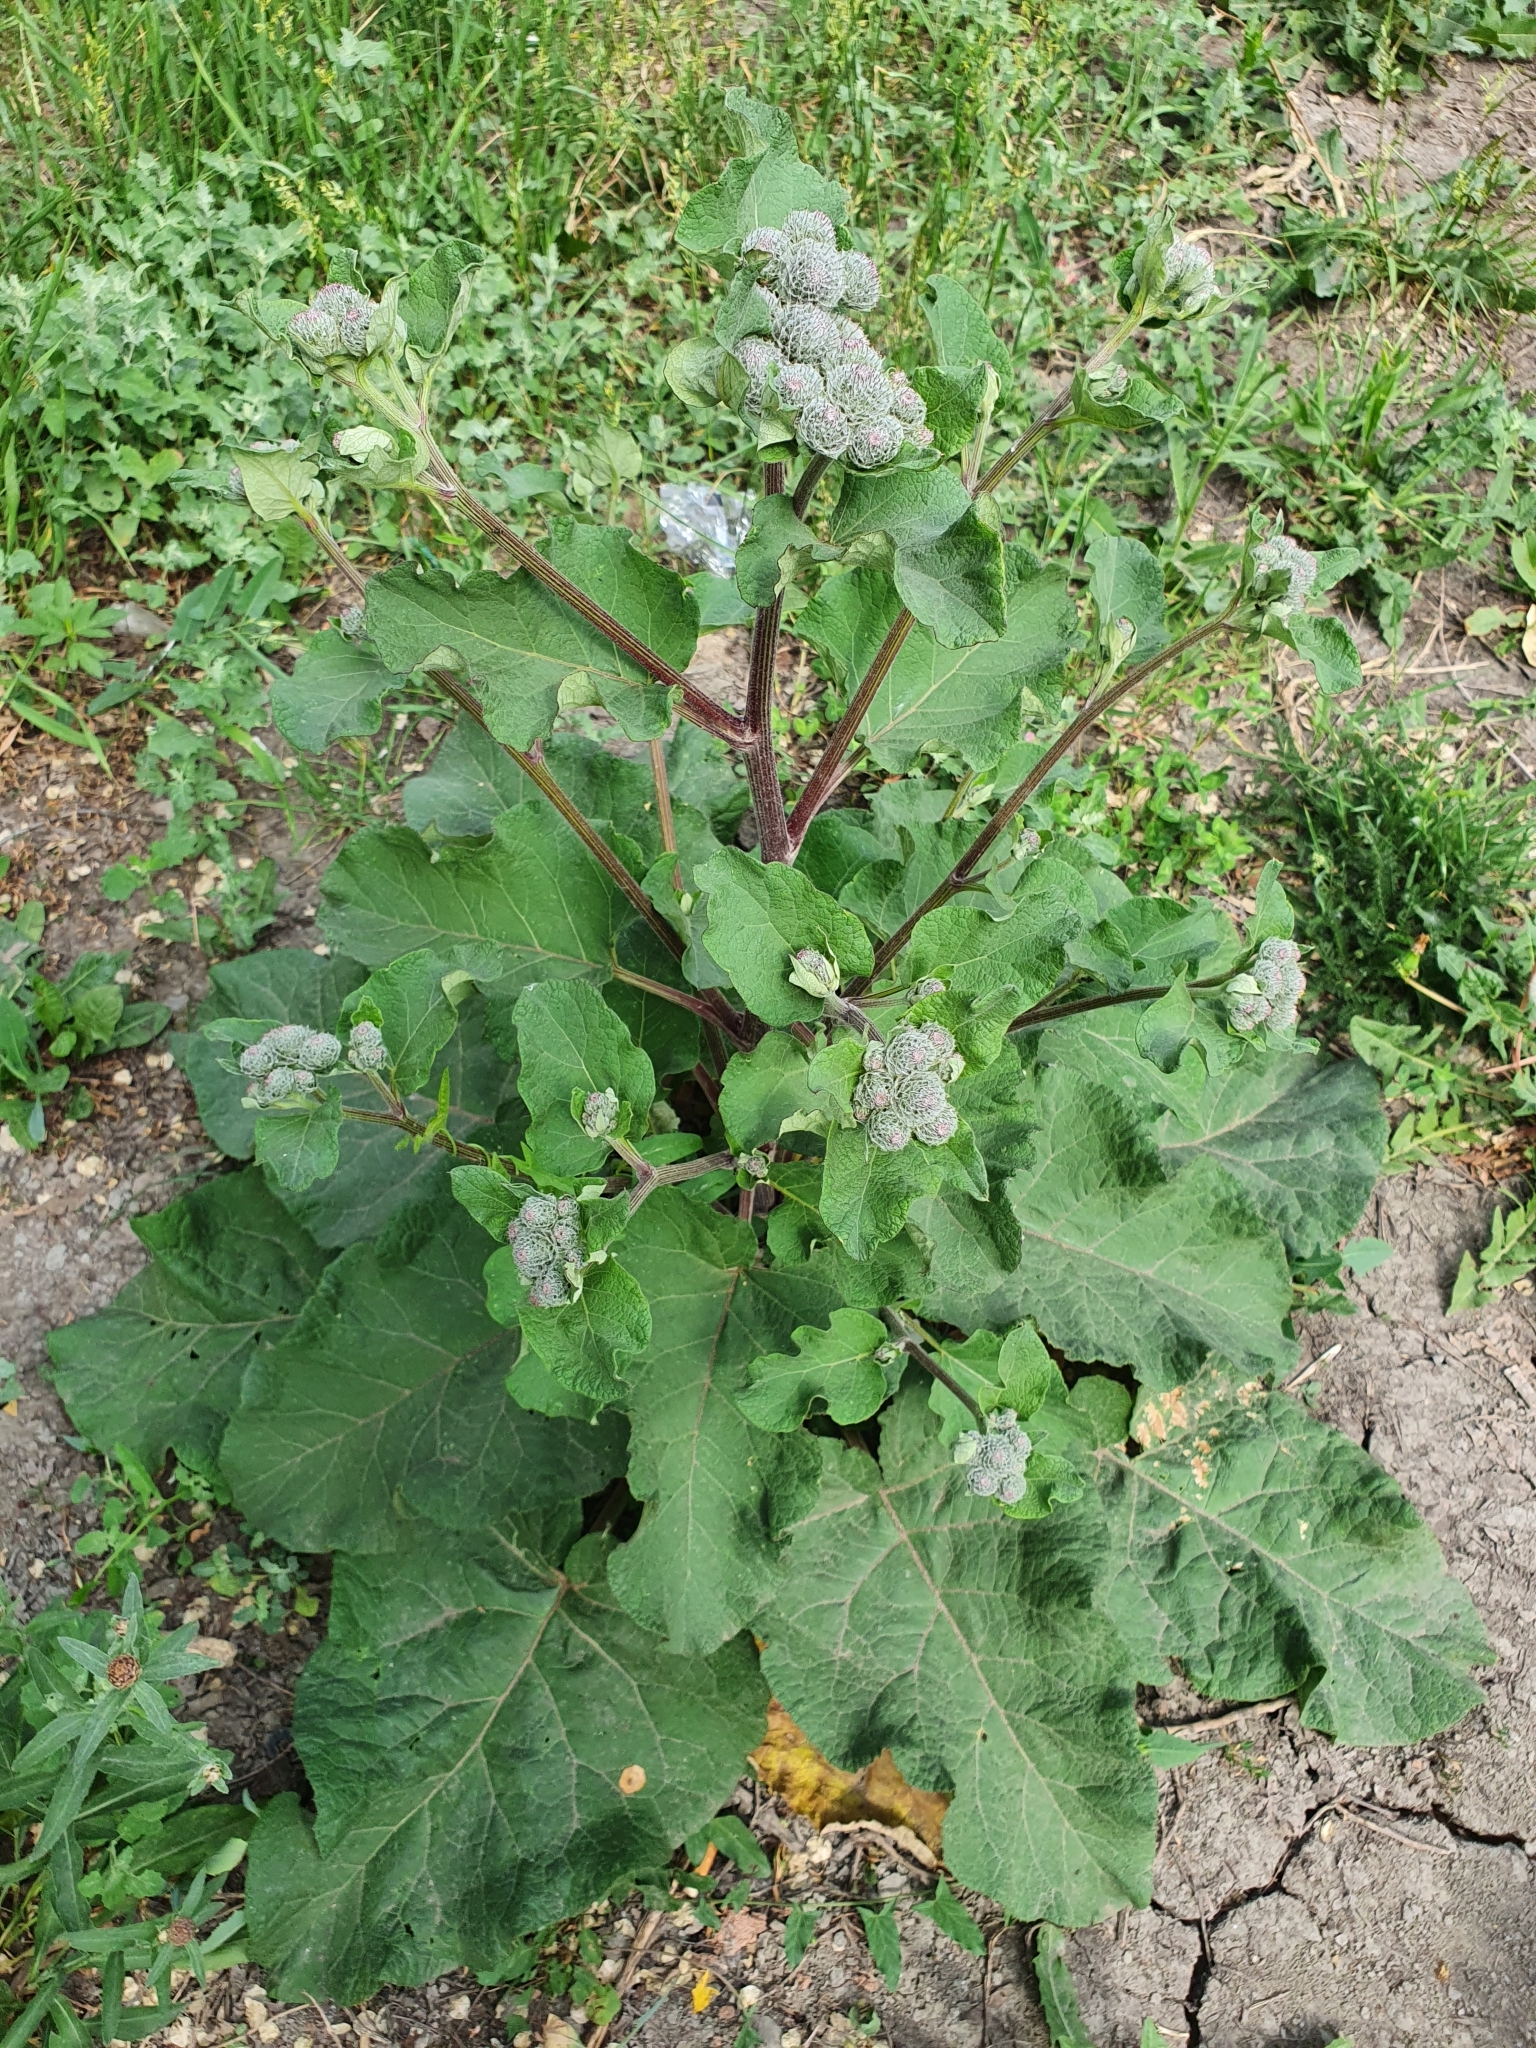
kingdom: Plantae
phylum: Tracheophyta
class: Magnoliopsida
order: Asterales
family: Asteraceae
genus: Arctium
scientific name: Arctium tomentosum
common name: Woolly burdock
